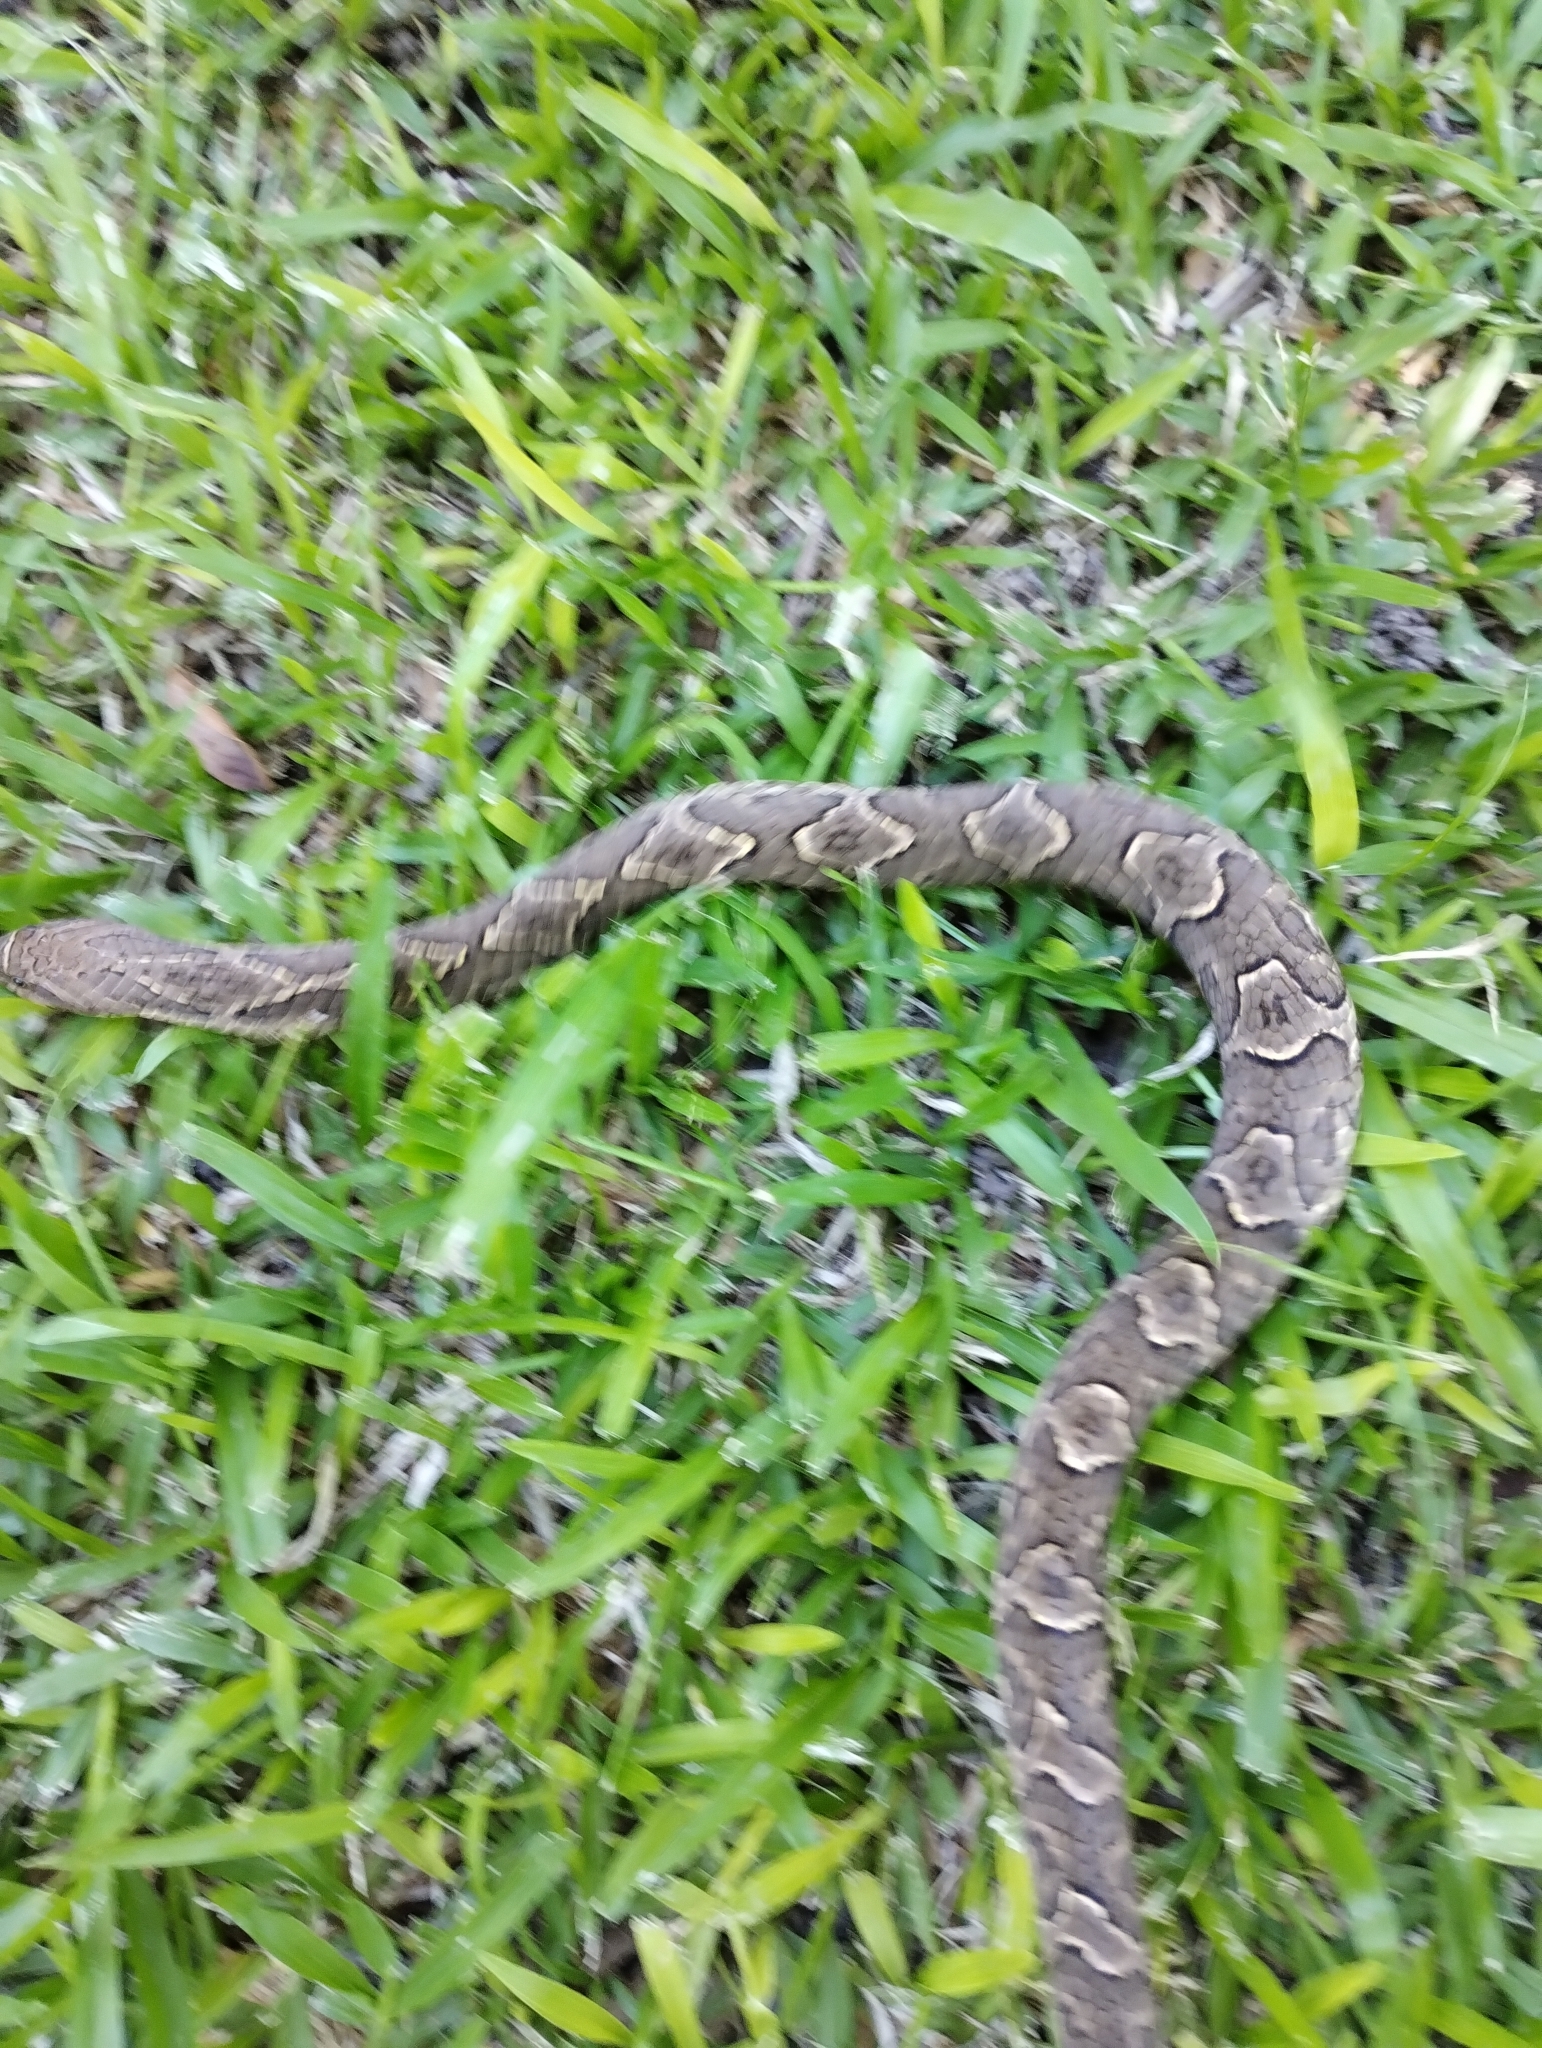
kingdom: Animalia
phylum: Chordata
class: Squamata
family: Colubridae
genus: Xenodon
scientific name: Xenodon merremii
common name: Wagler's snake
